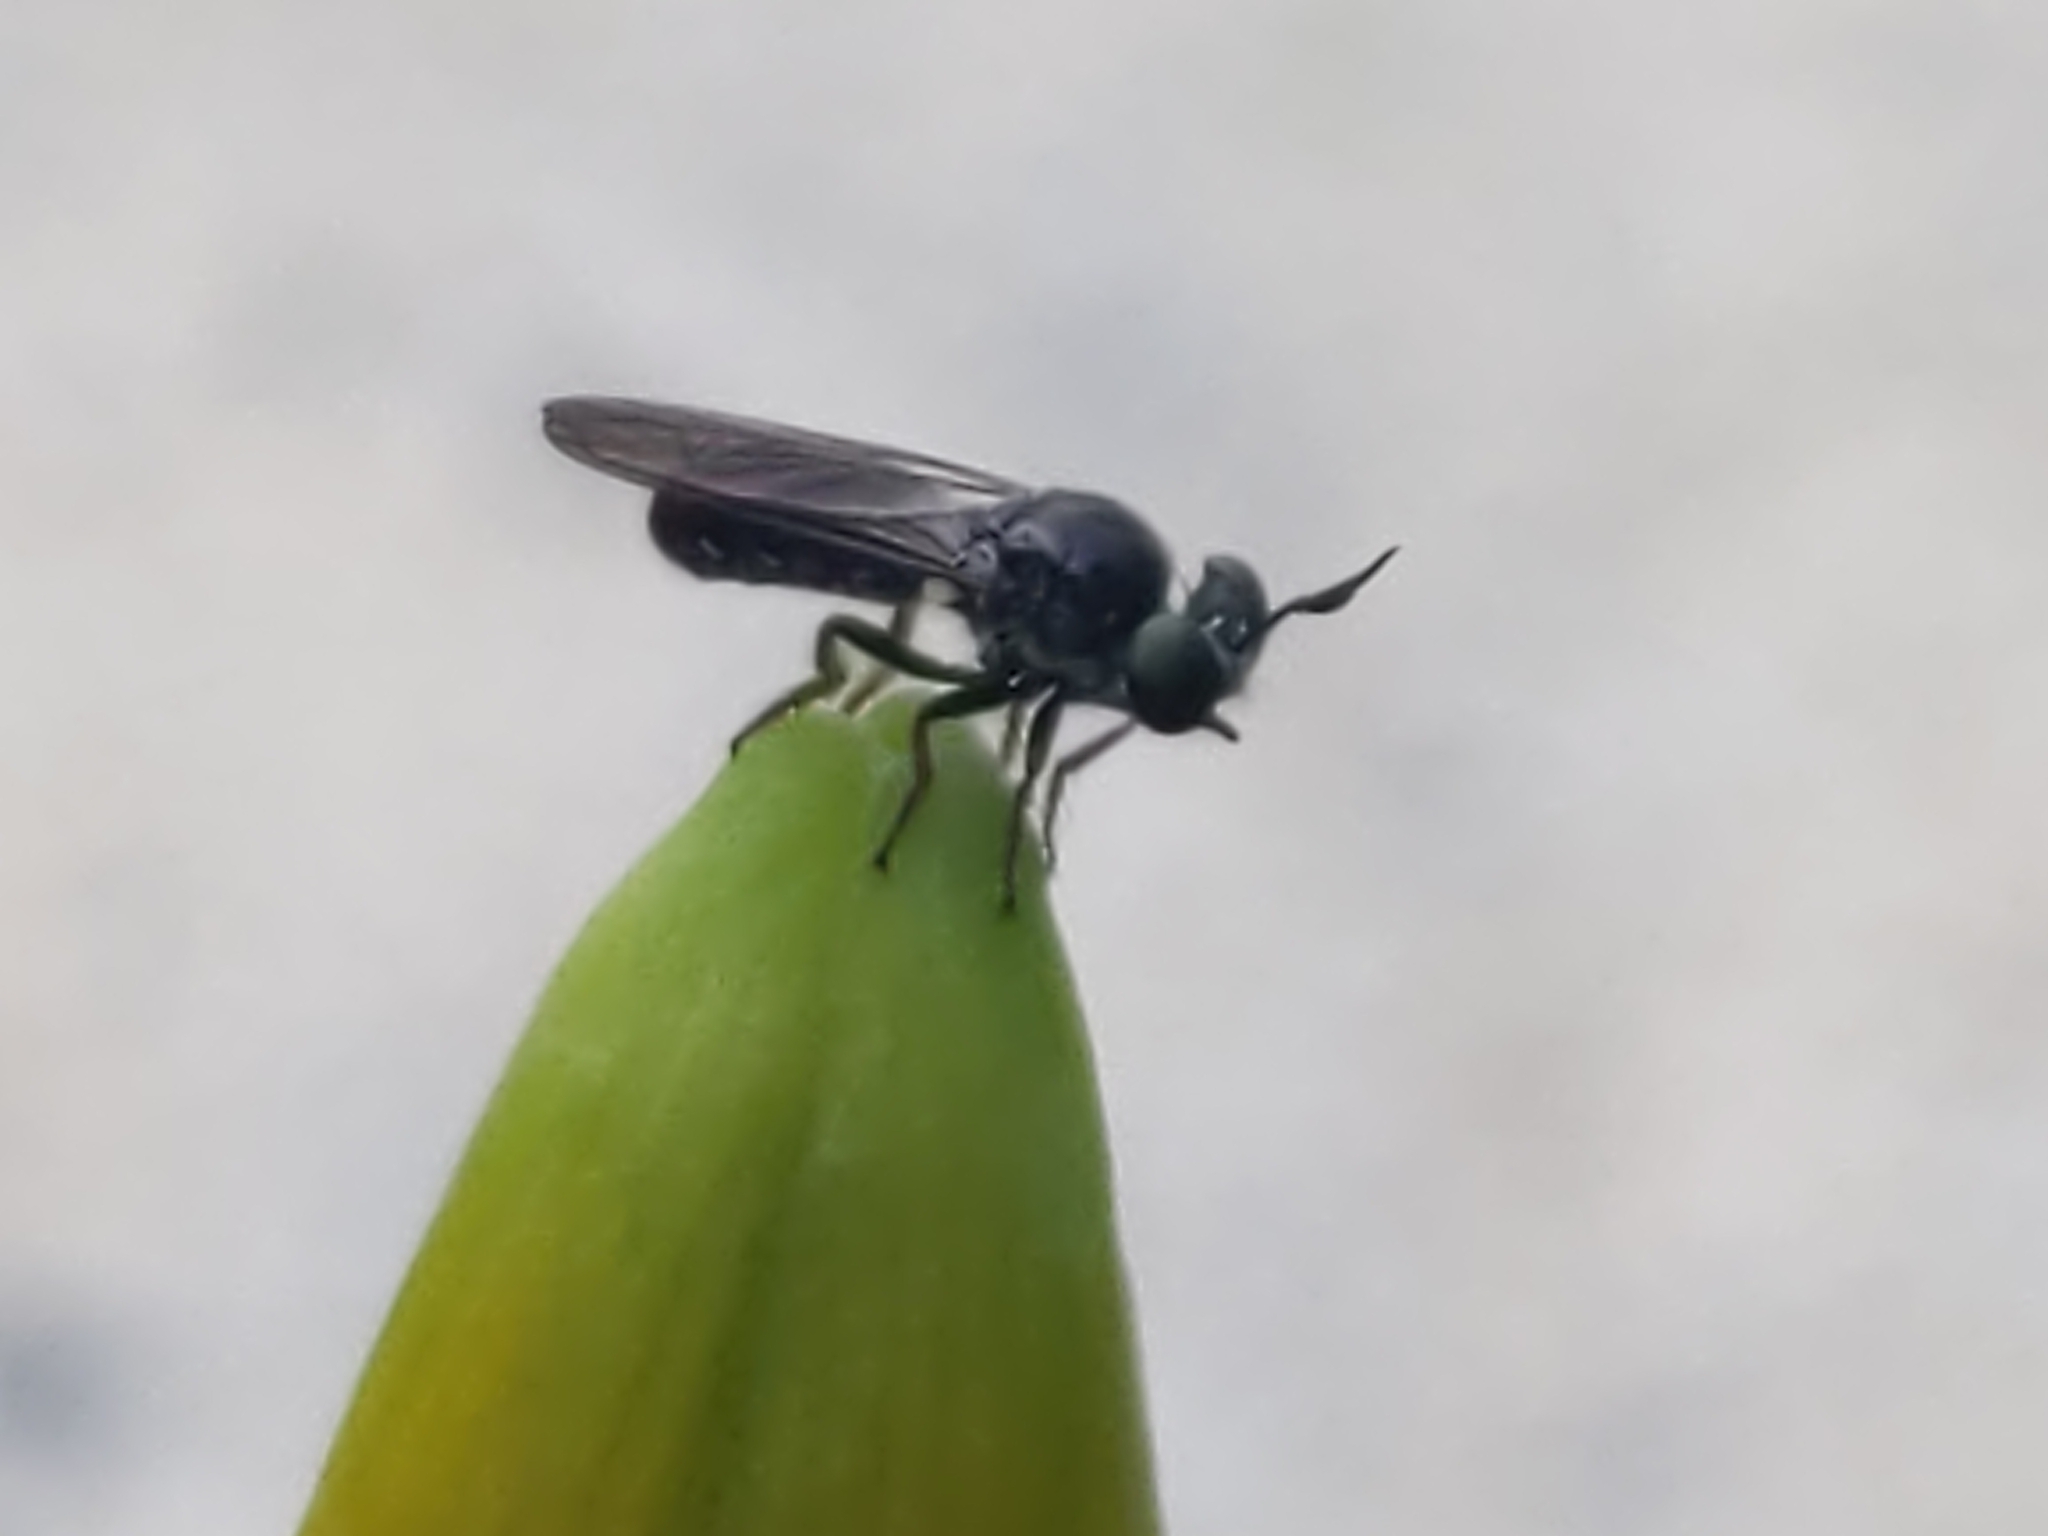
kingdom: Animalia
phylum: Arthropoda
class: Insecta
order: Diptera
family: Asilidae
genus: Cerotainia
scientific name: Cerotainia
